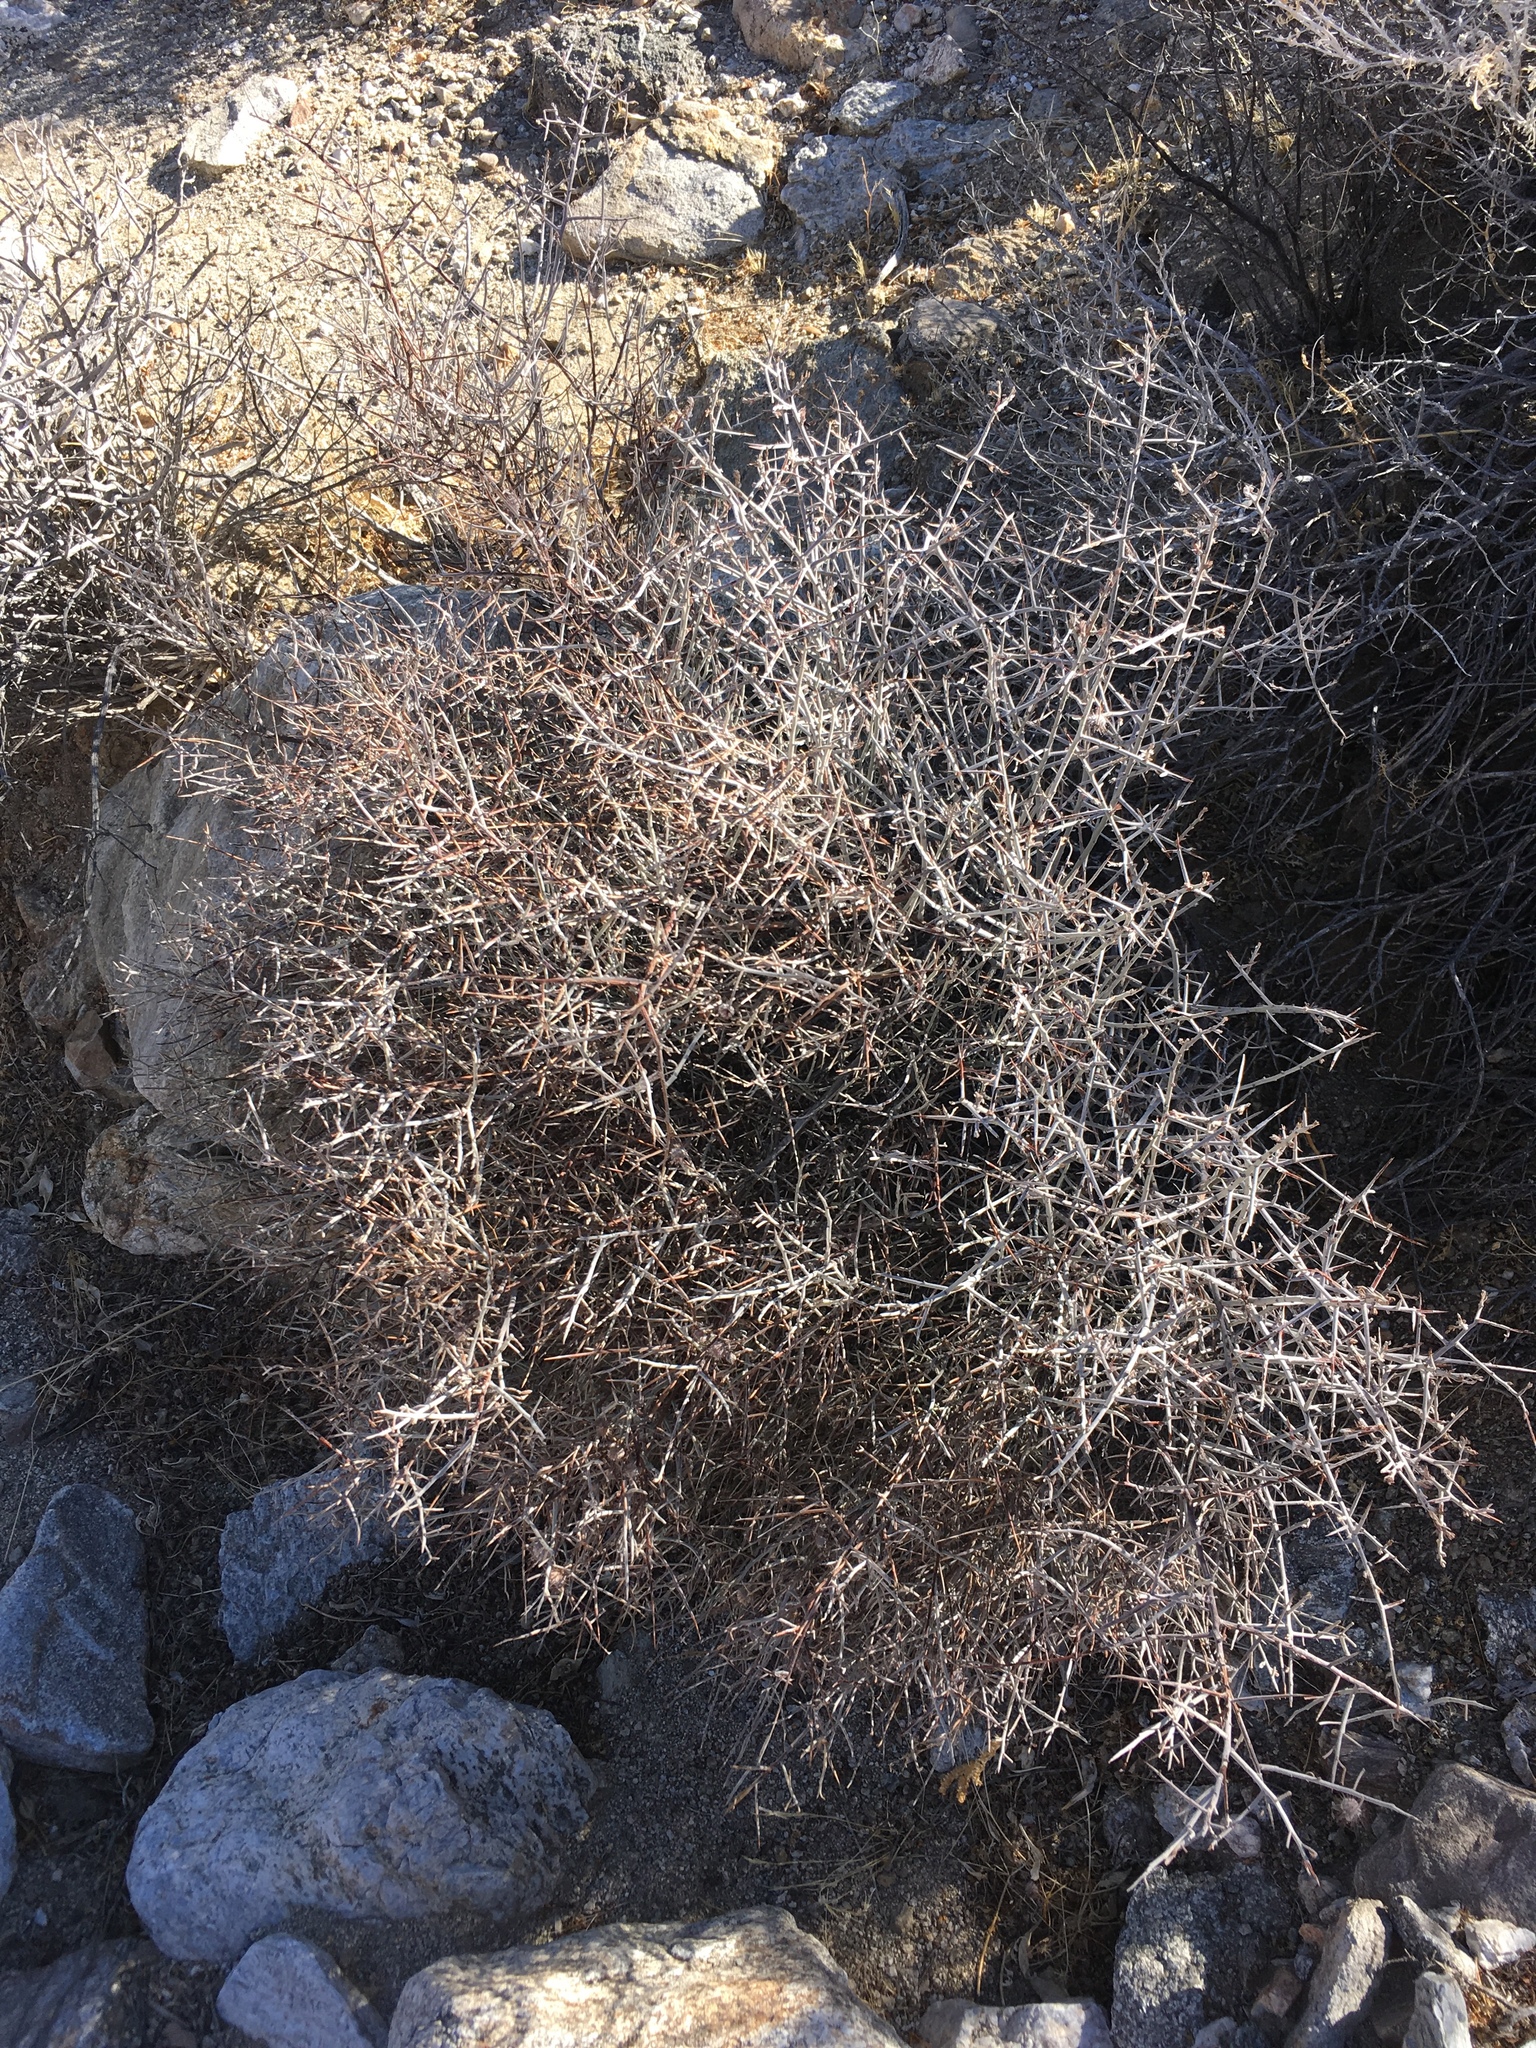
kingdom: Plantae
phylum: Tracheophyta
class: Magnoliopsida
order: Zygophyllales
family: Krameriaceae
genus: Krameria
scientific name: Krameria bicolor
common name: White ratany
